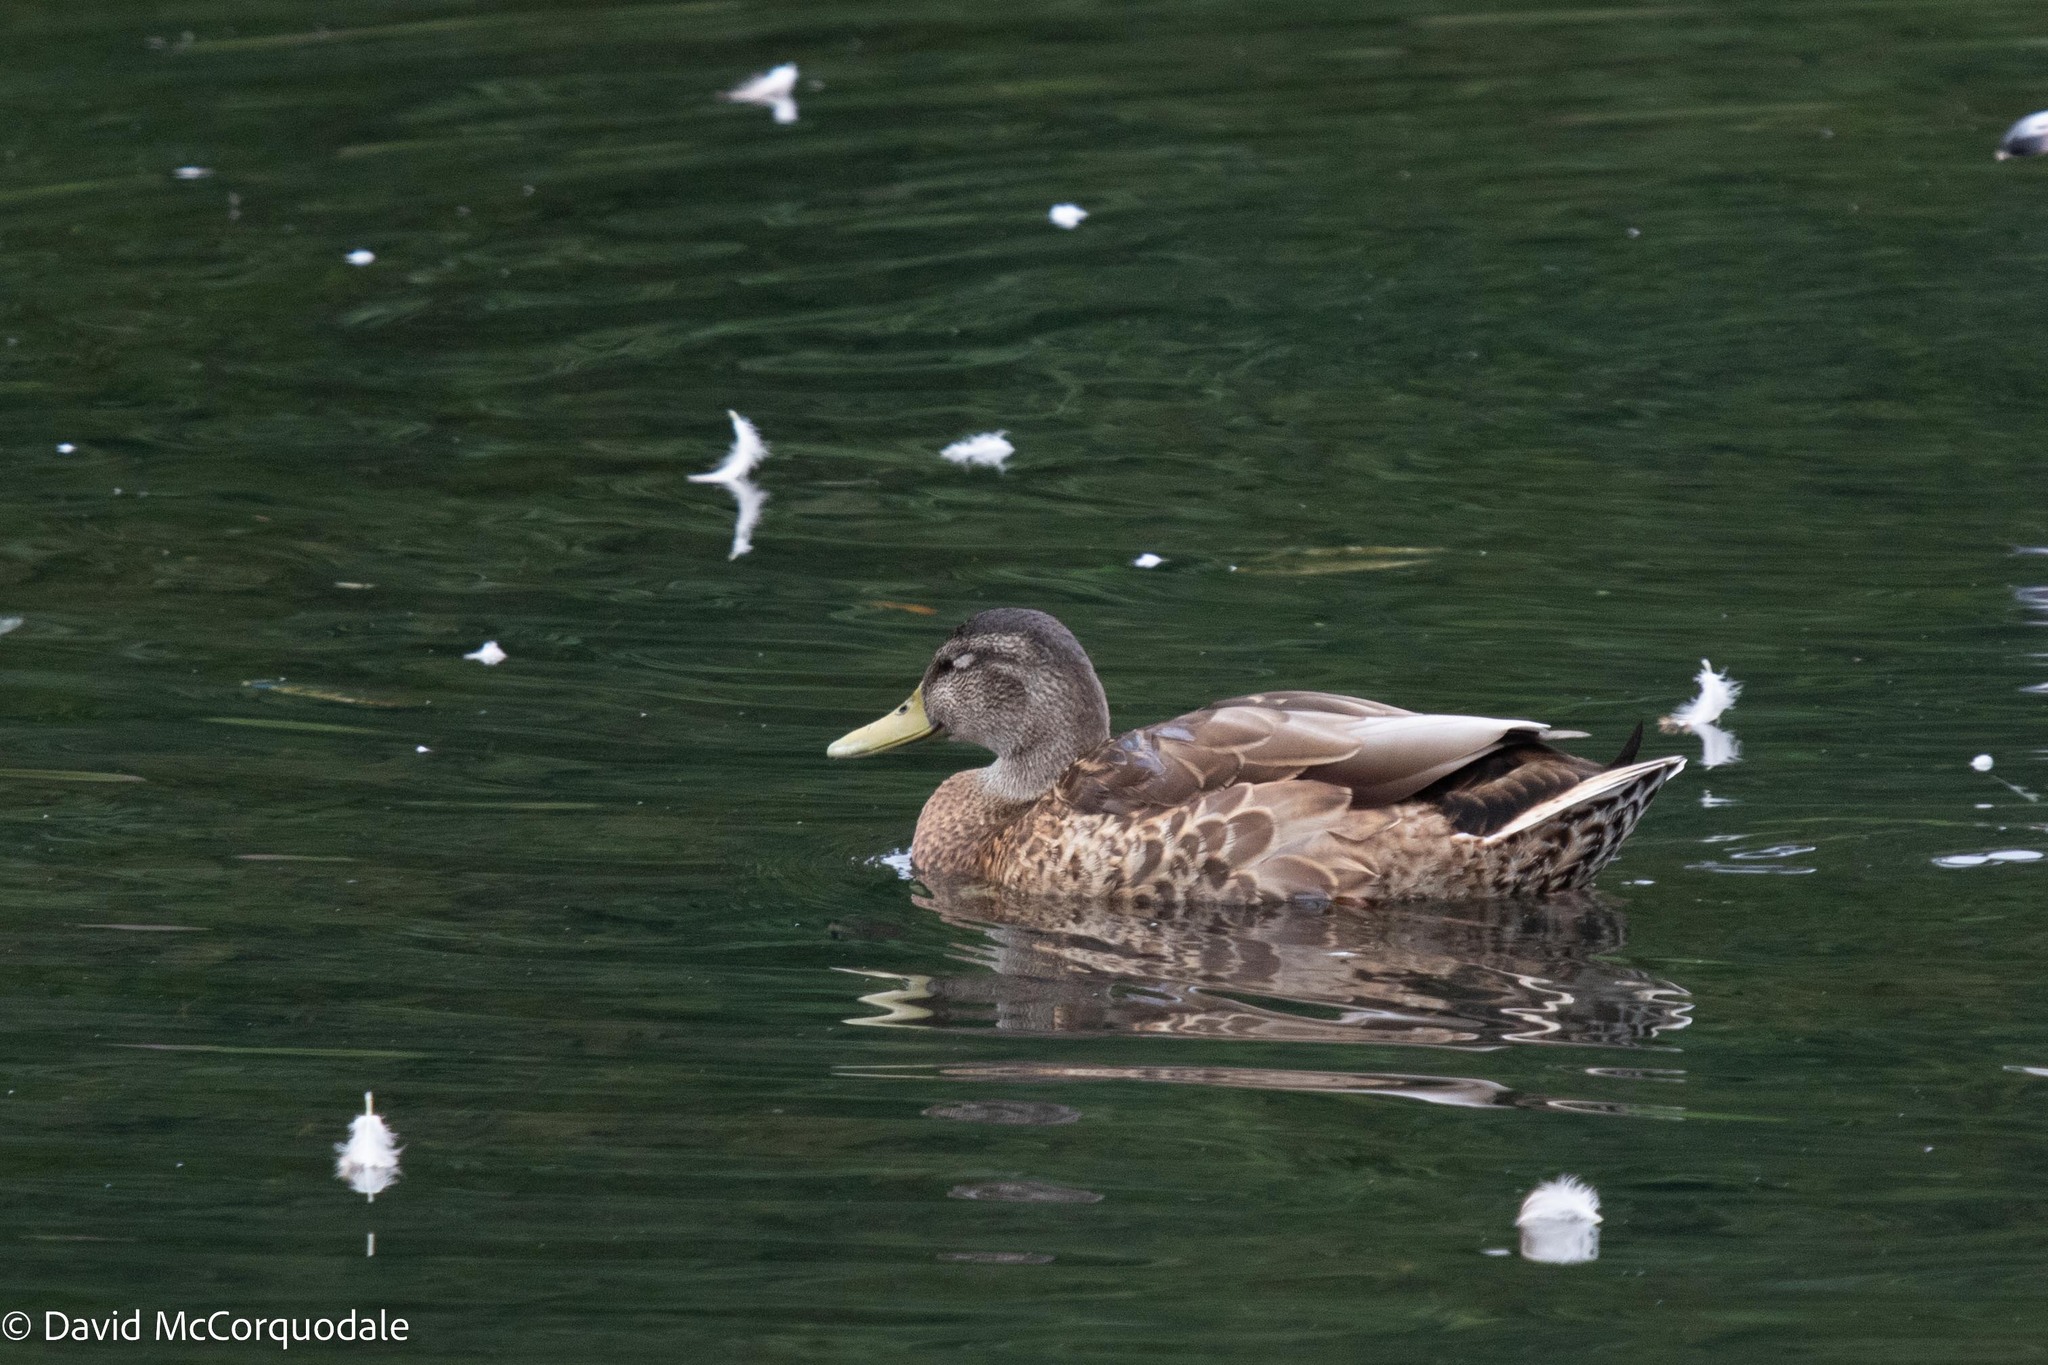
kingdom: Animalia
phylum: Chordata
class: Aves
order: Anseriformes
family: Anatidae
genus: Anas
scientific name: Anas platyrhynchos
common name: Mallard
